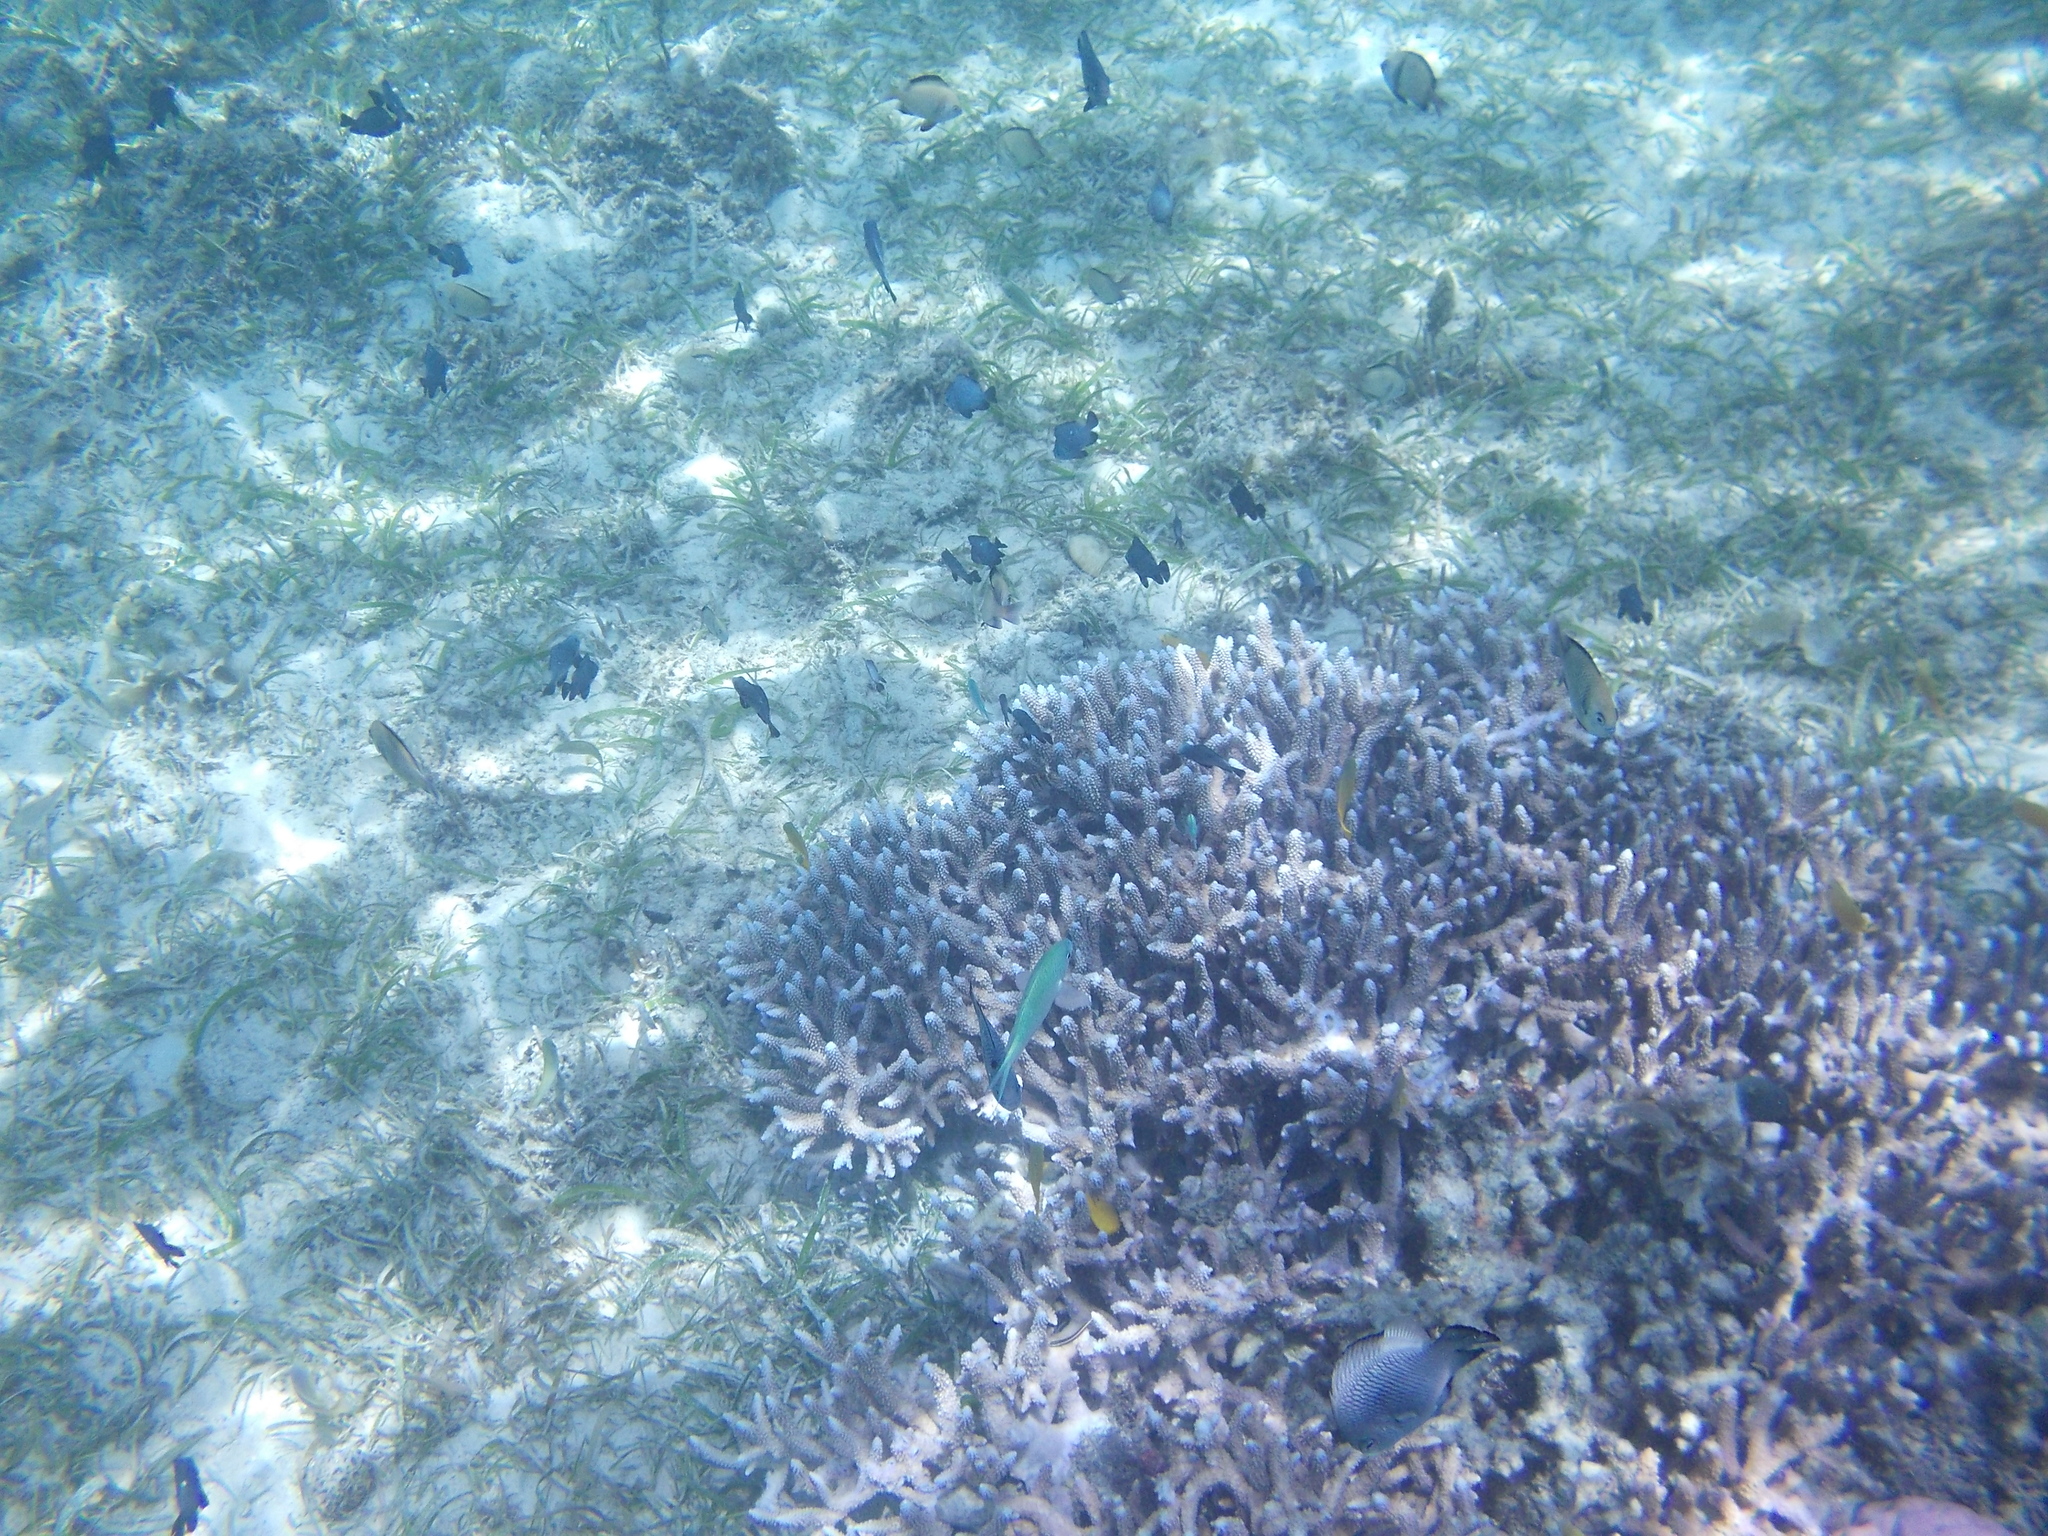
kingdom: Animalia
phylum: Chordata
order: Perciformes
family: Pomacentridae
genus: Chromis
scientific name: Chromis viridis
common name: Blue-green chromis
